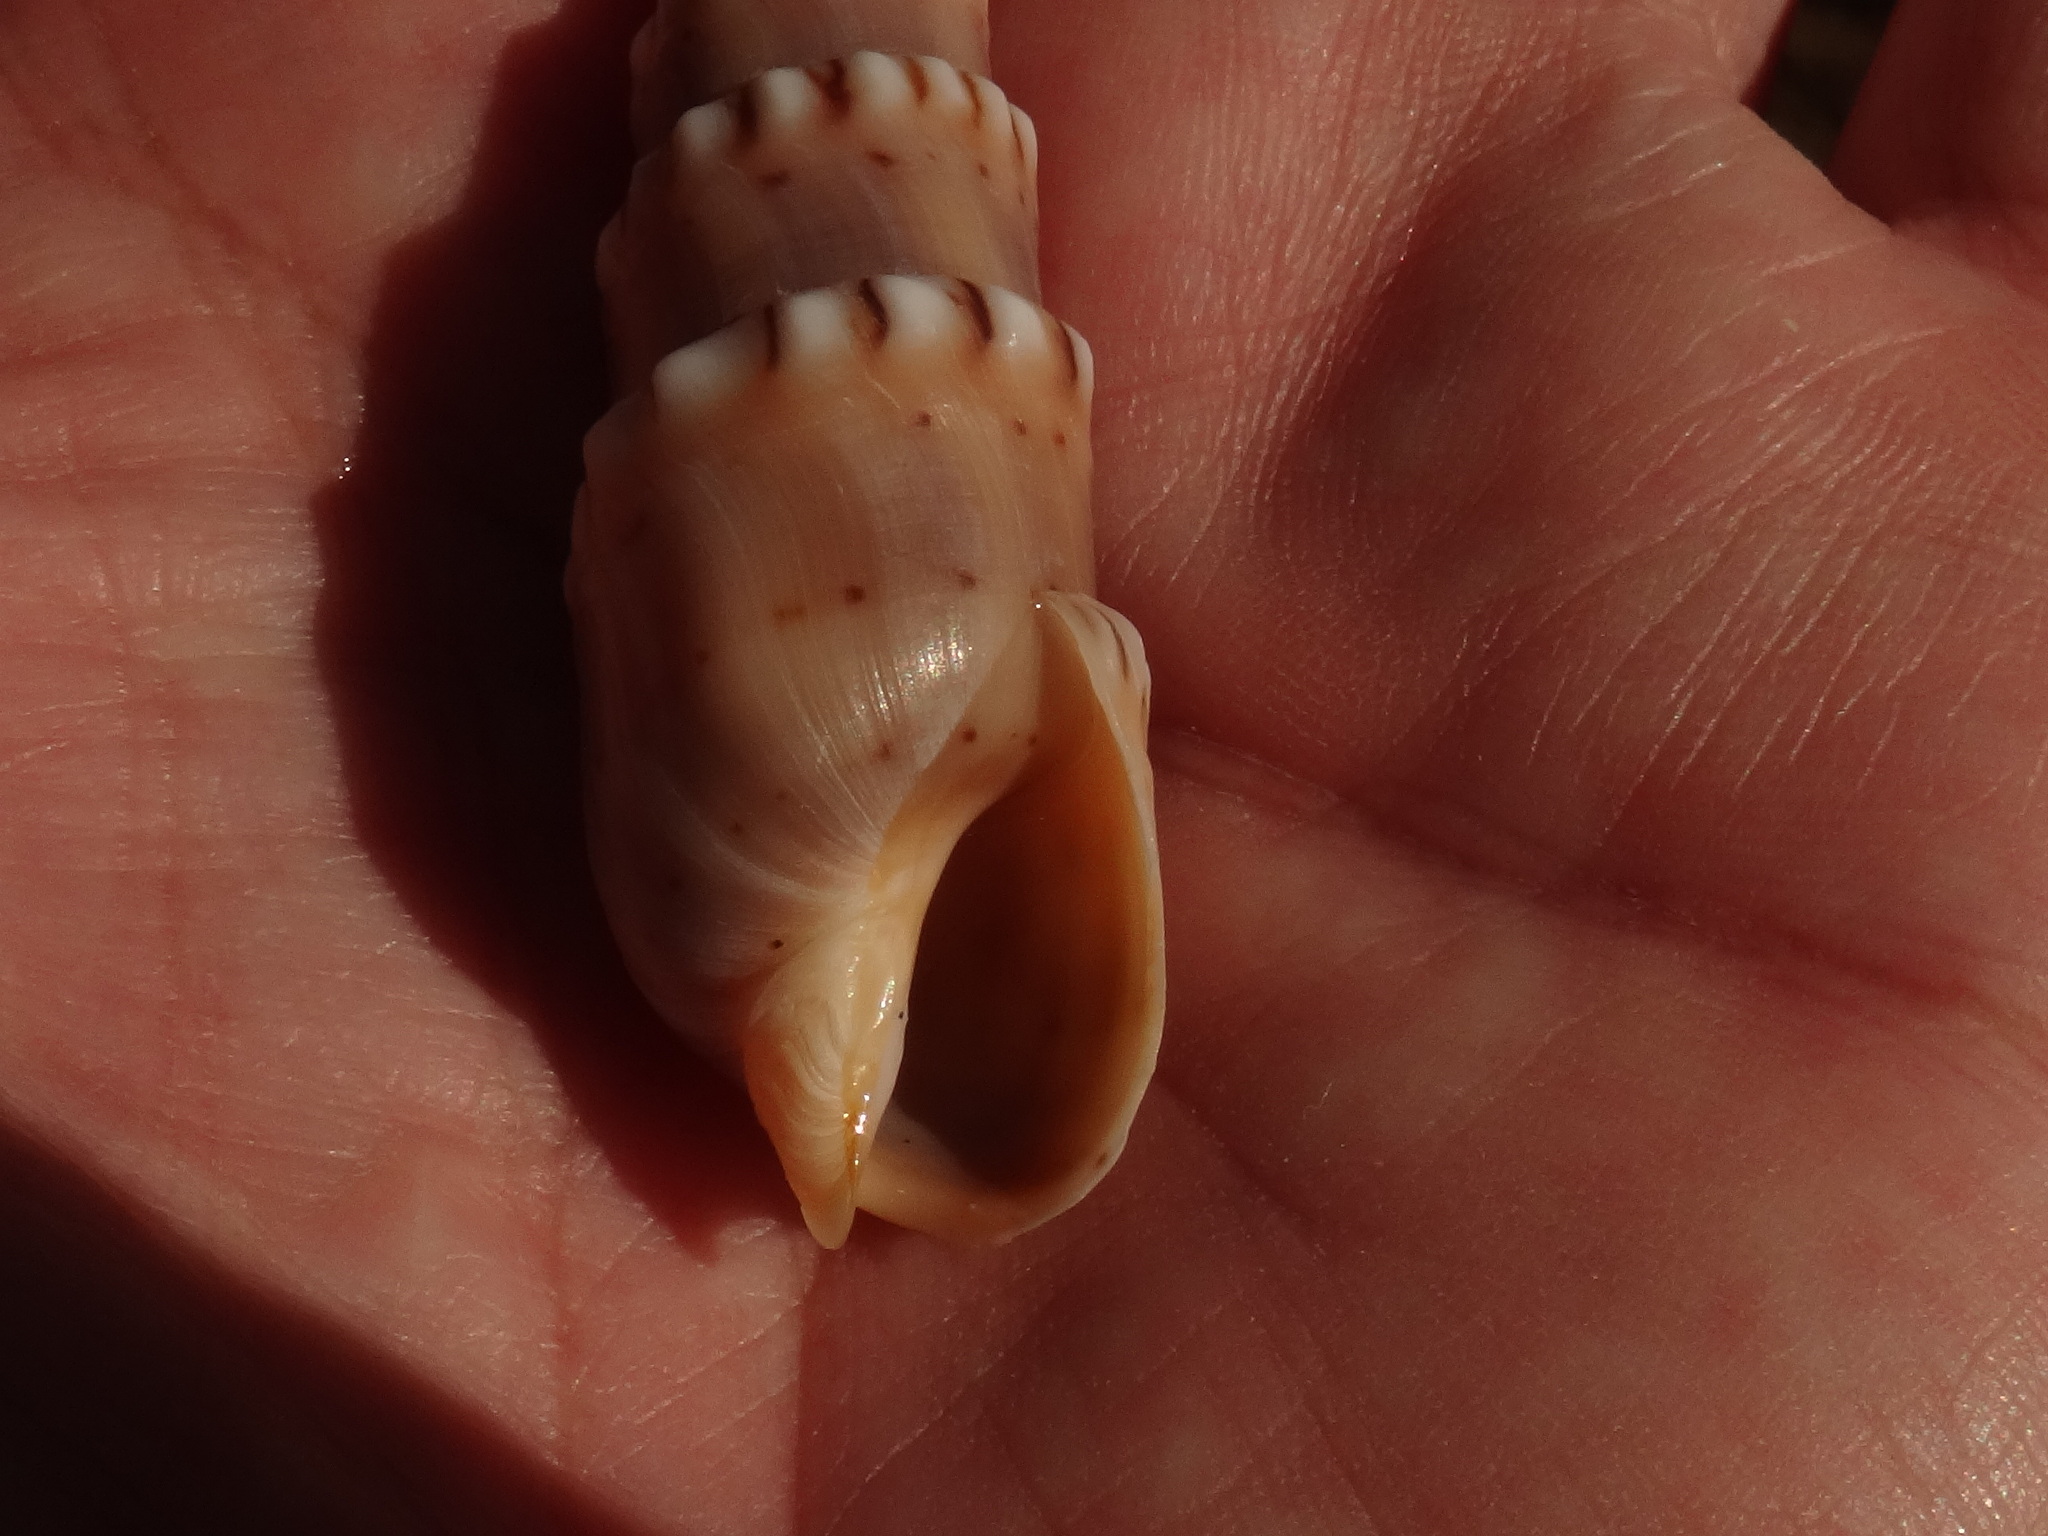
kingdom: Animalia
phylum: Mollusca
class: Gastropoda
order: Neogastropoda
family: Terebridae
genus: Oxymeris
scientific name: Oxymeris crenulata
